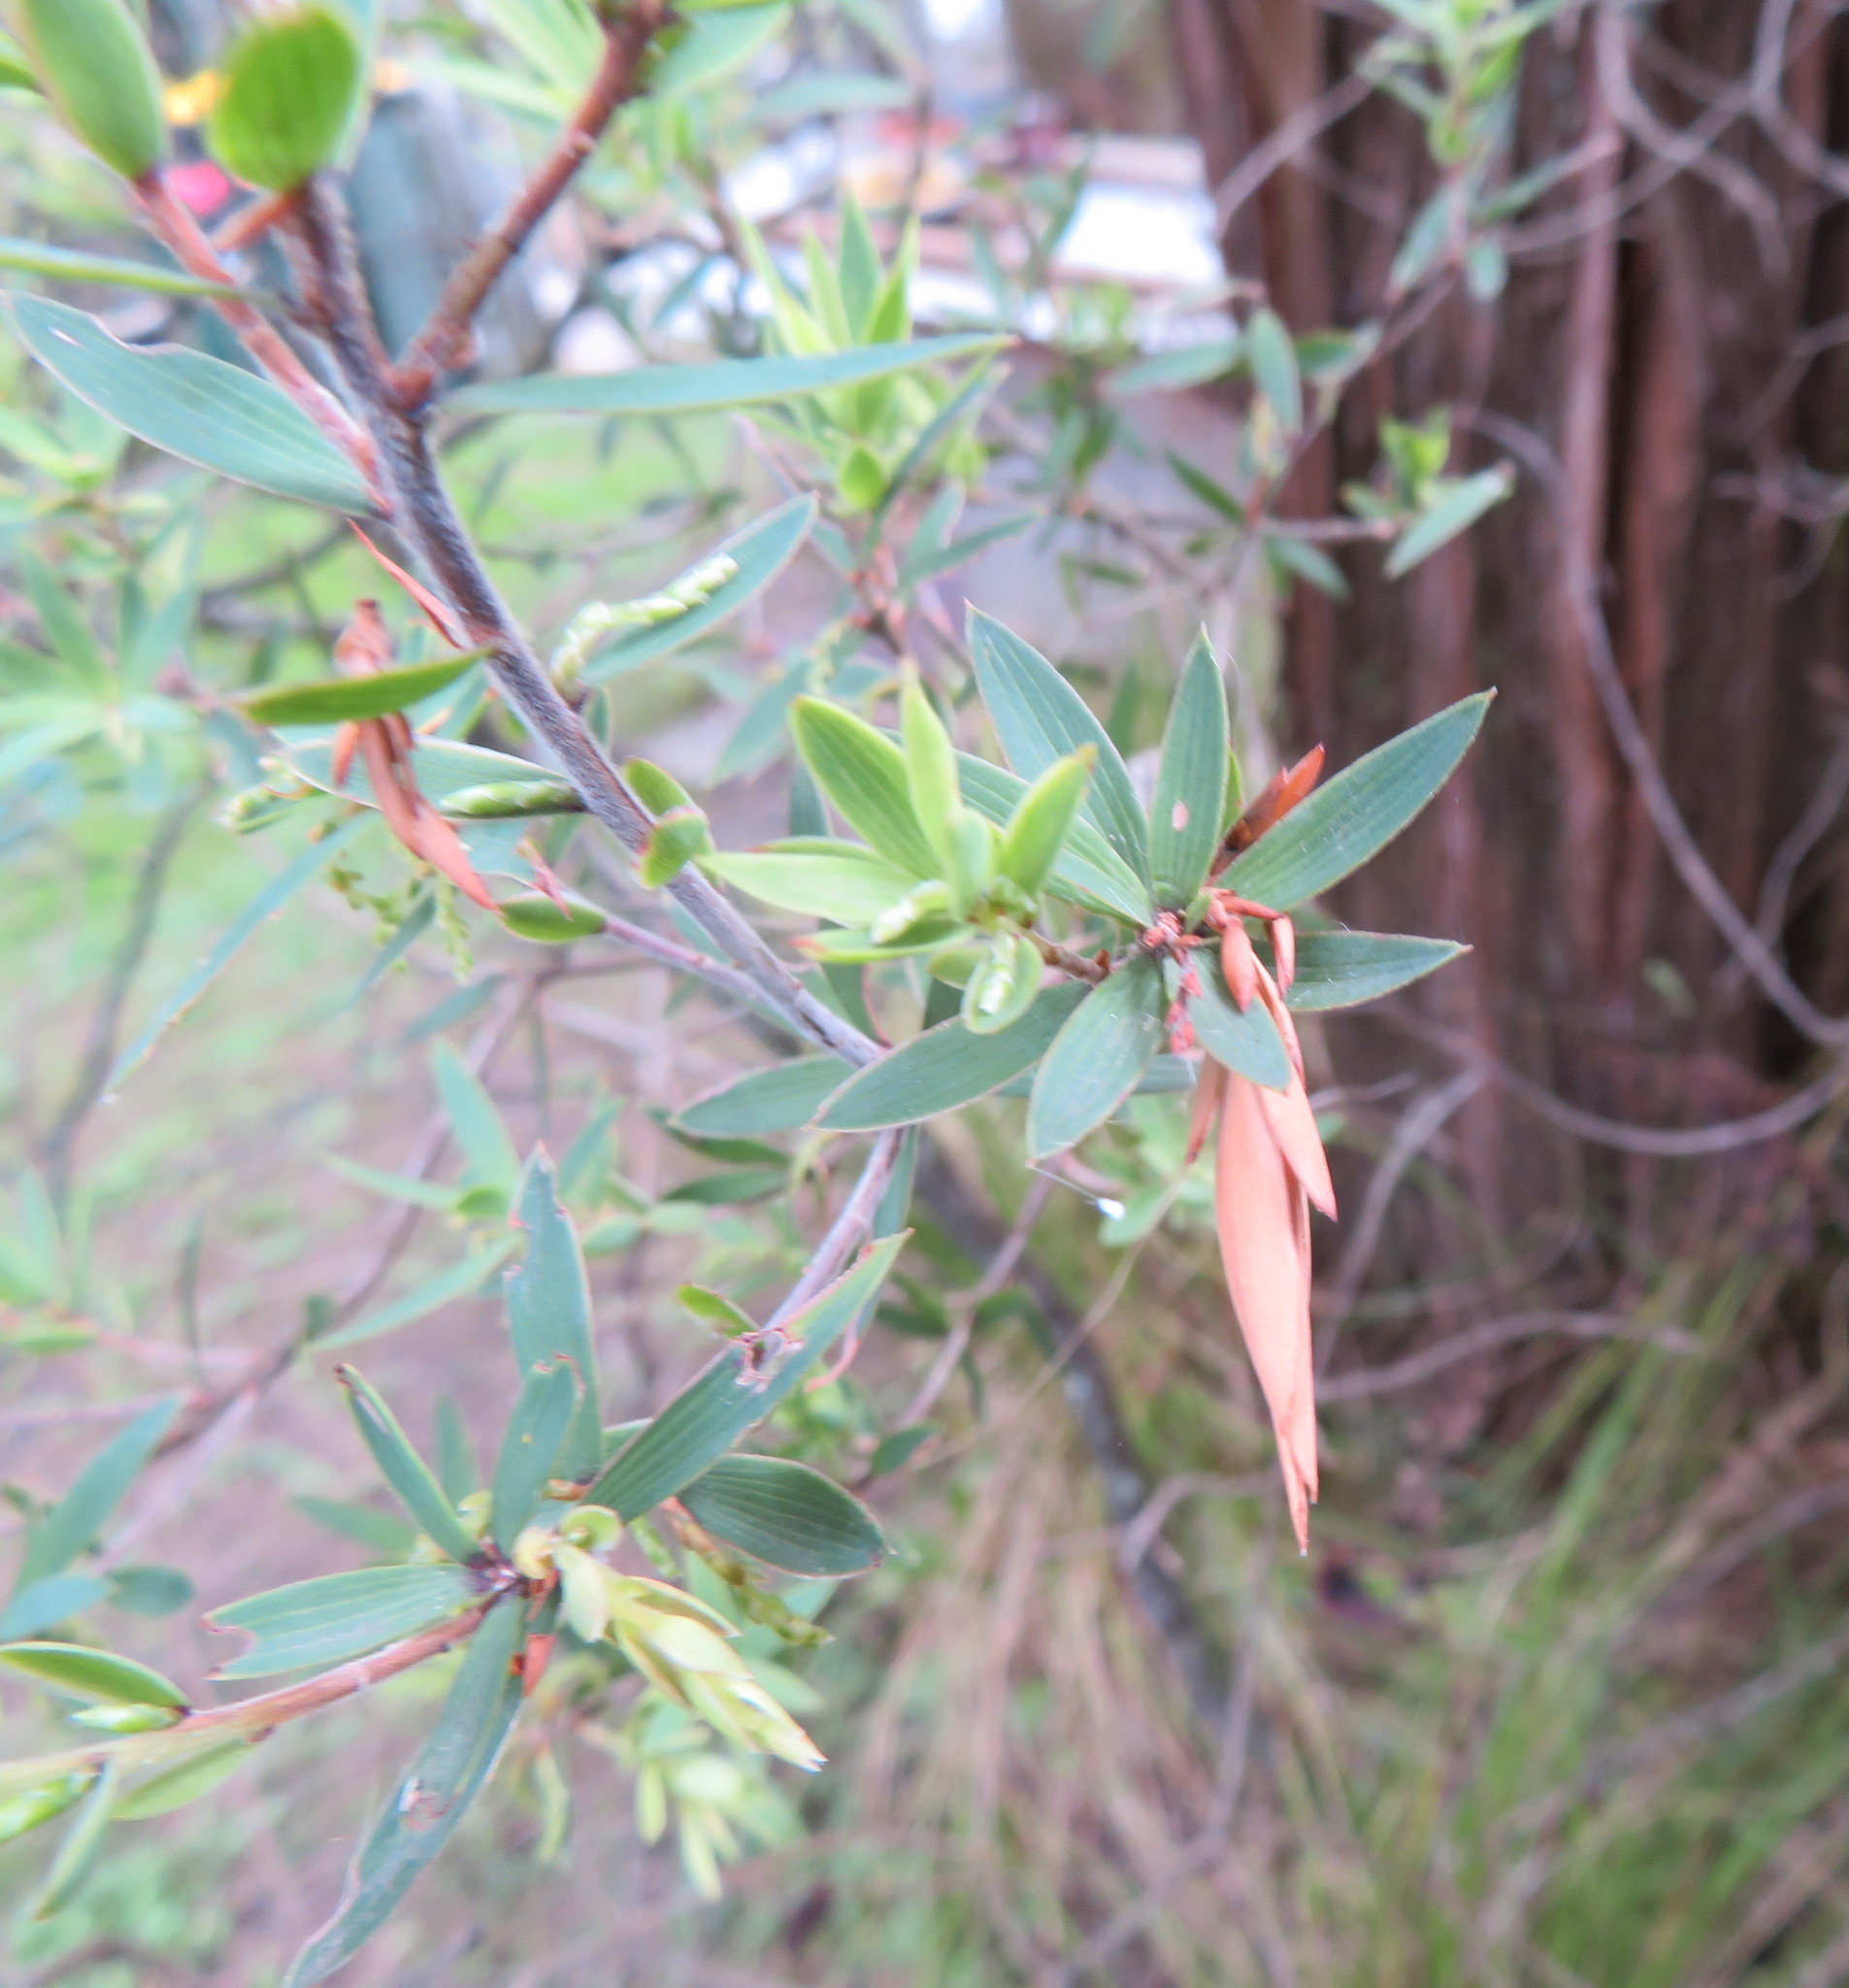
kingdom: Plantae
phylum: Tracheophyta
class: Magnoliopsida
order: Ericales
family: Ericaceae
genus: Leucopogon
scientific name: Leucopogon fasciculatus
